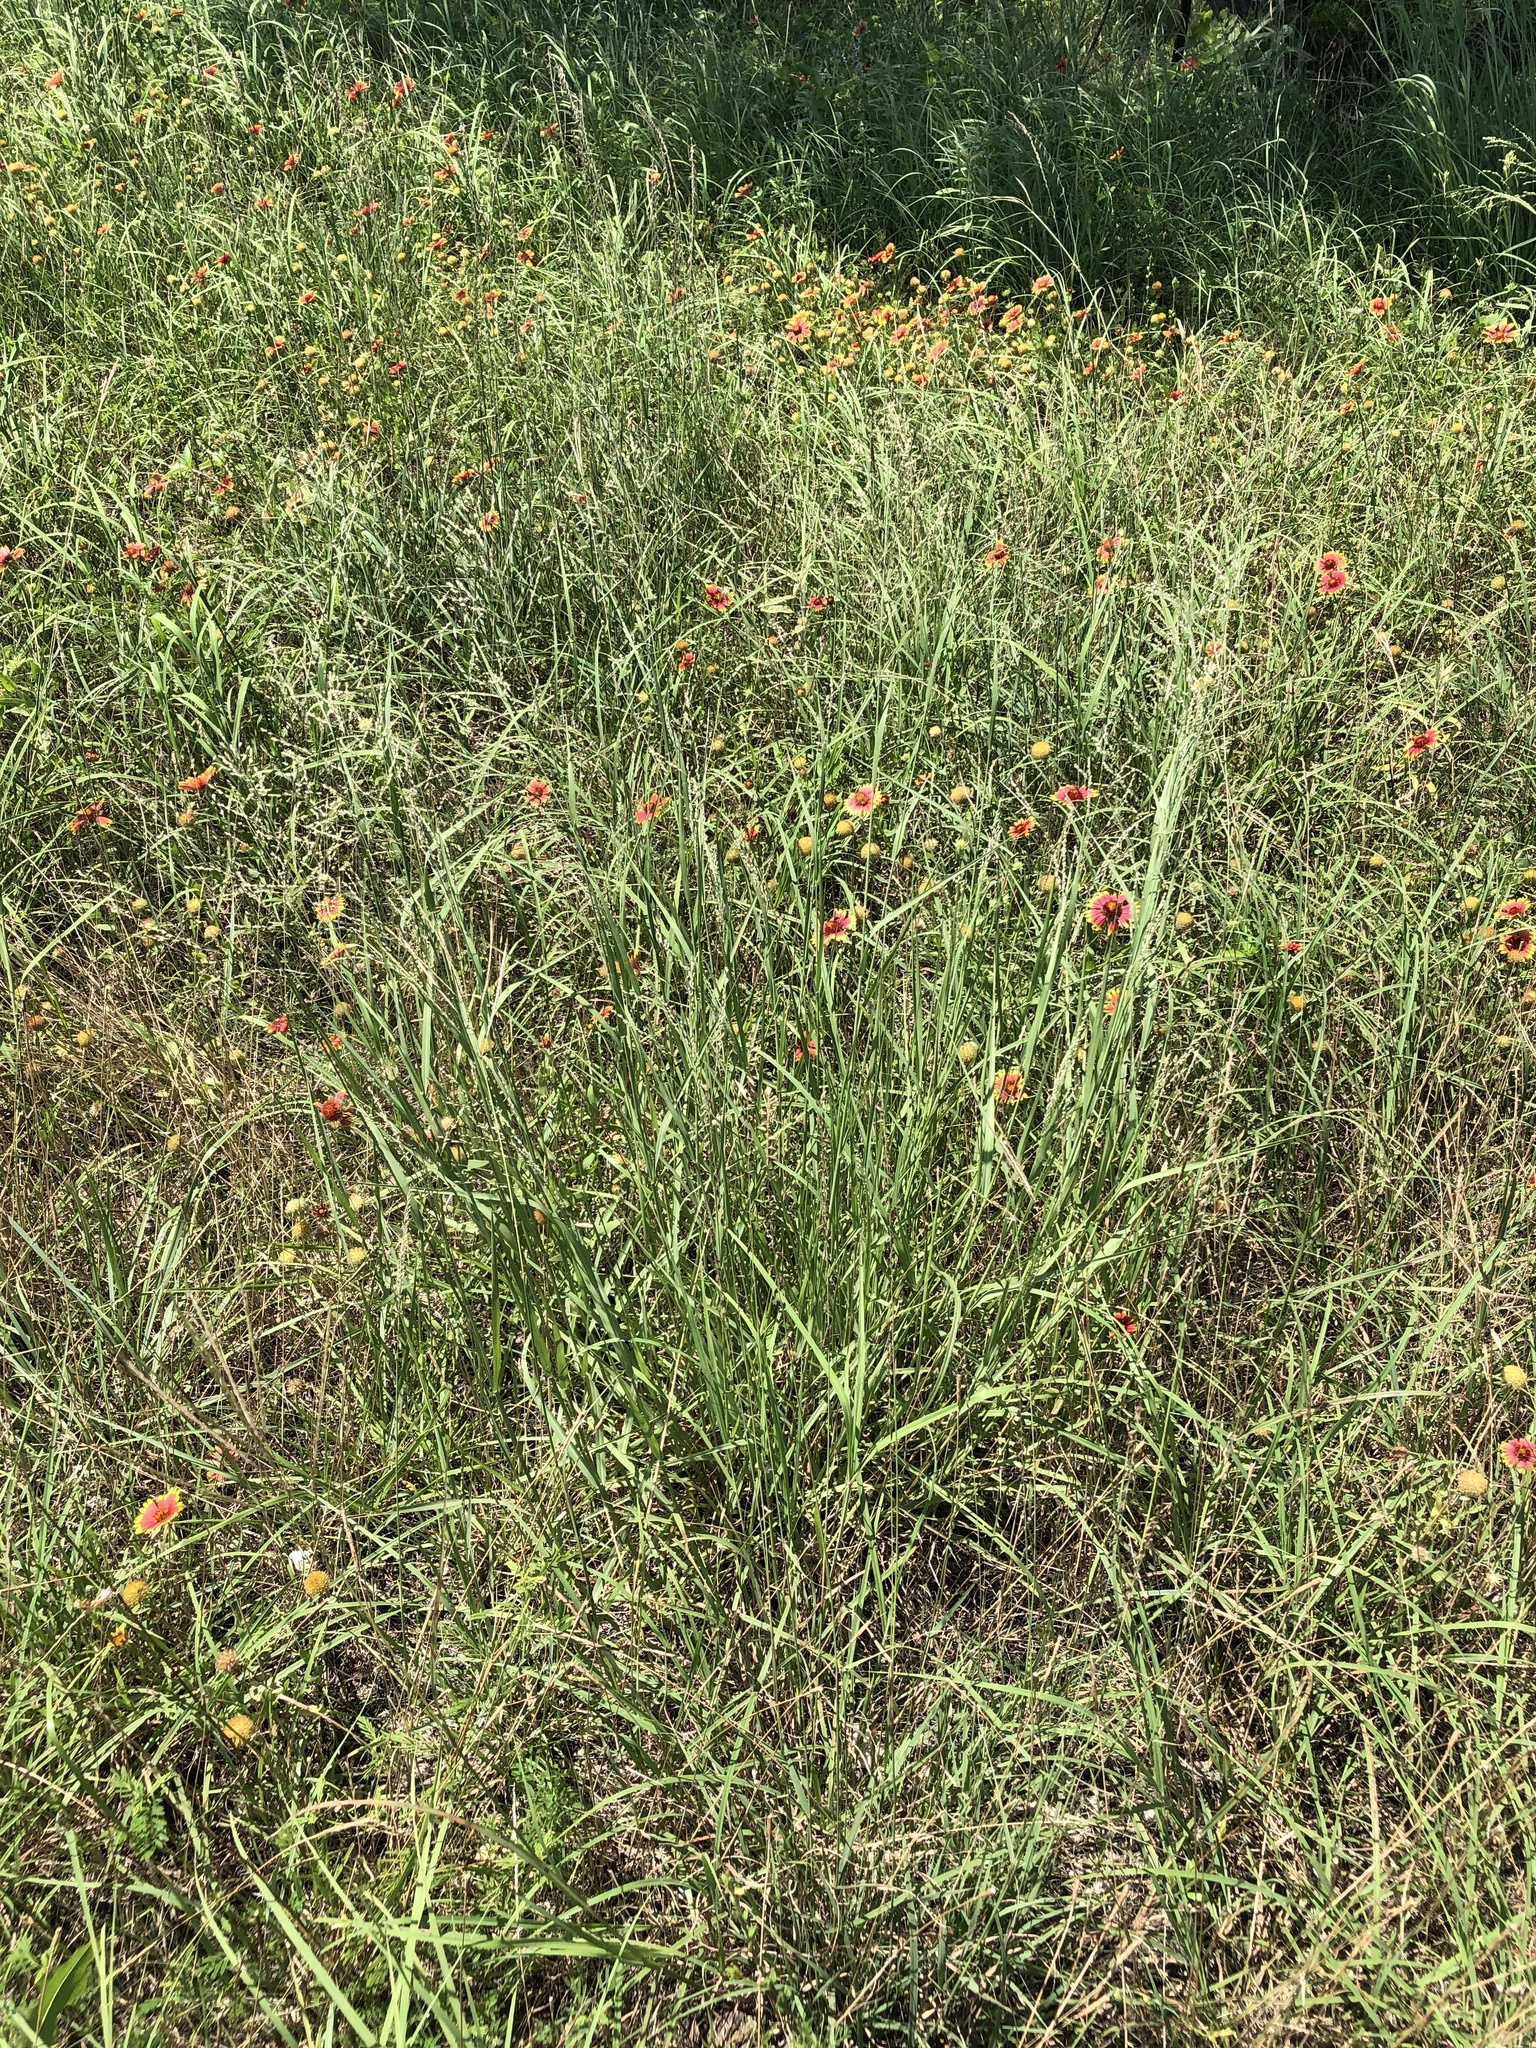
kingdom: Plantae
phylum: Tracheophyta
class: Liliopsida
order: Poales
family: Poaceae
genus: Panicum
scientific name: Panicum coloratum
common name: Kleingrass
